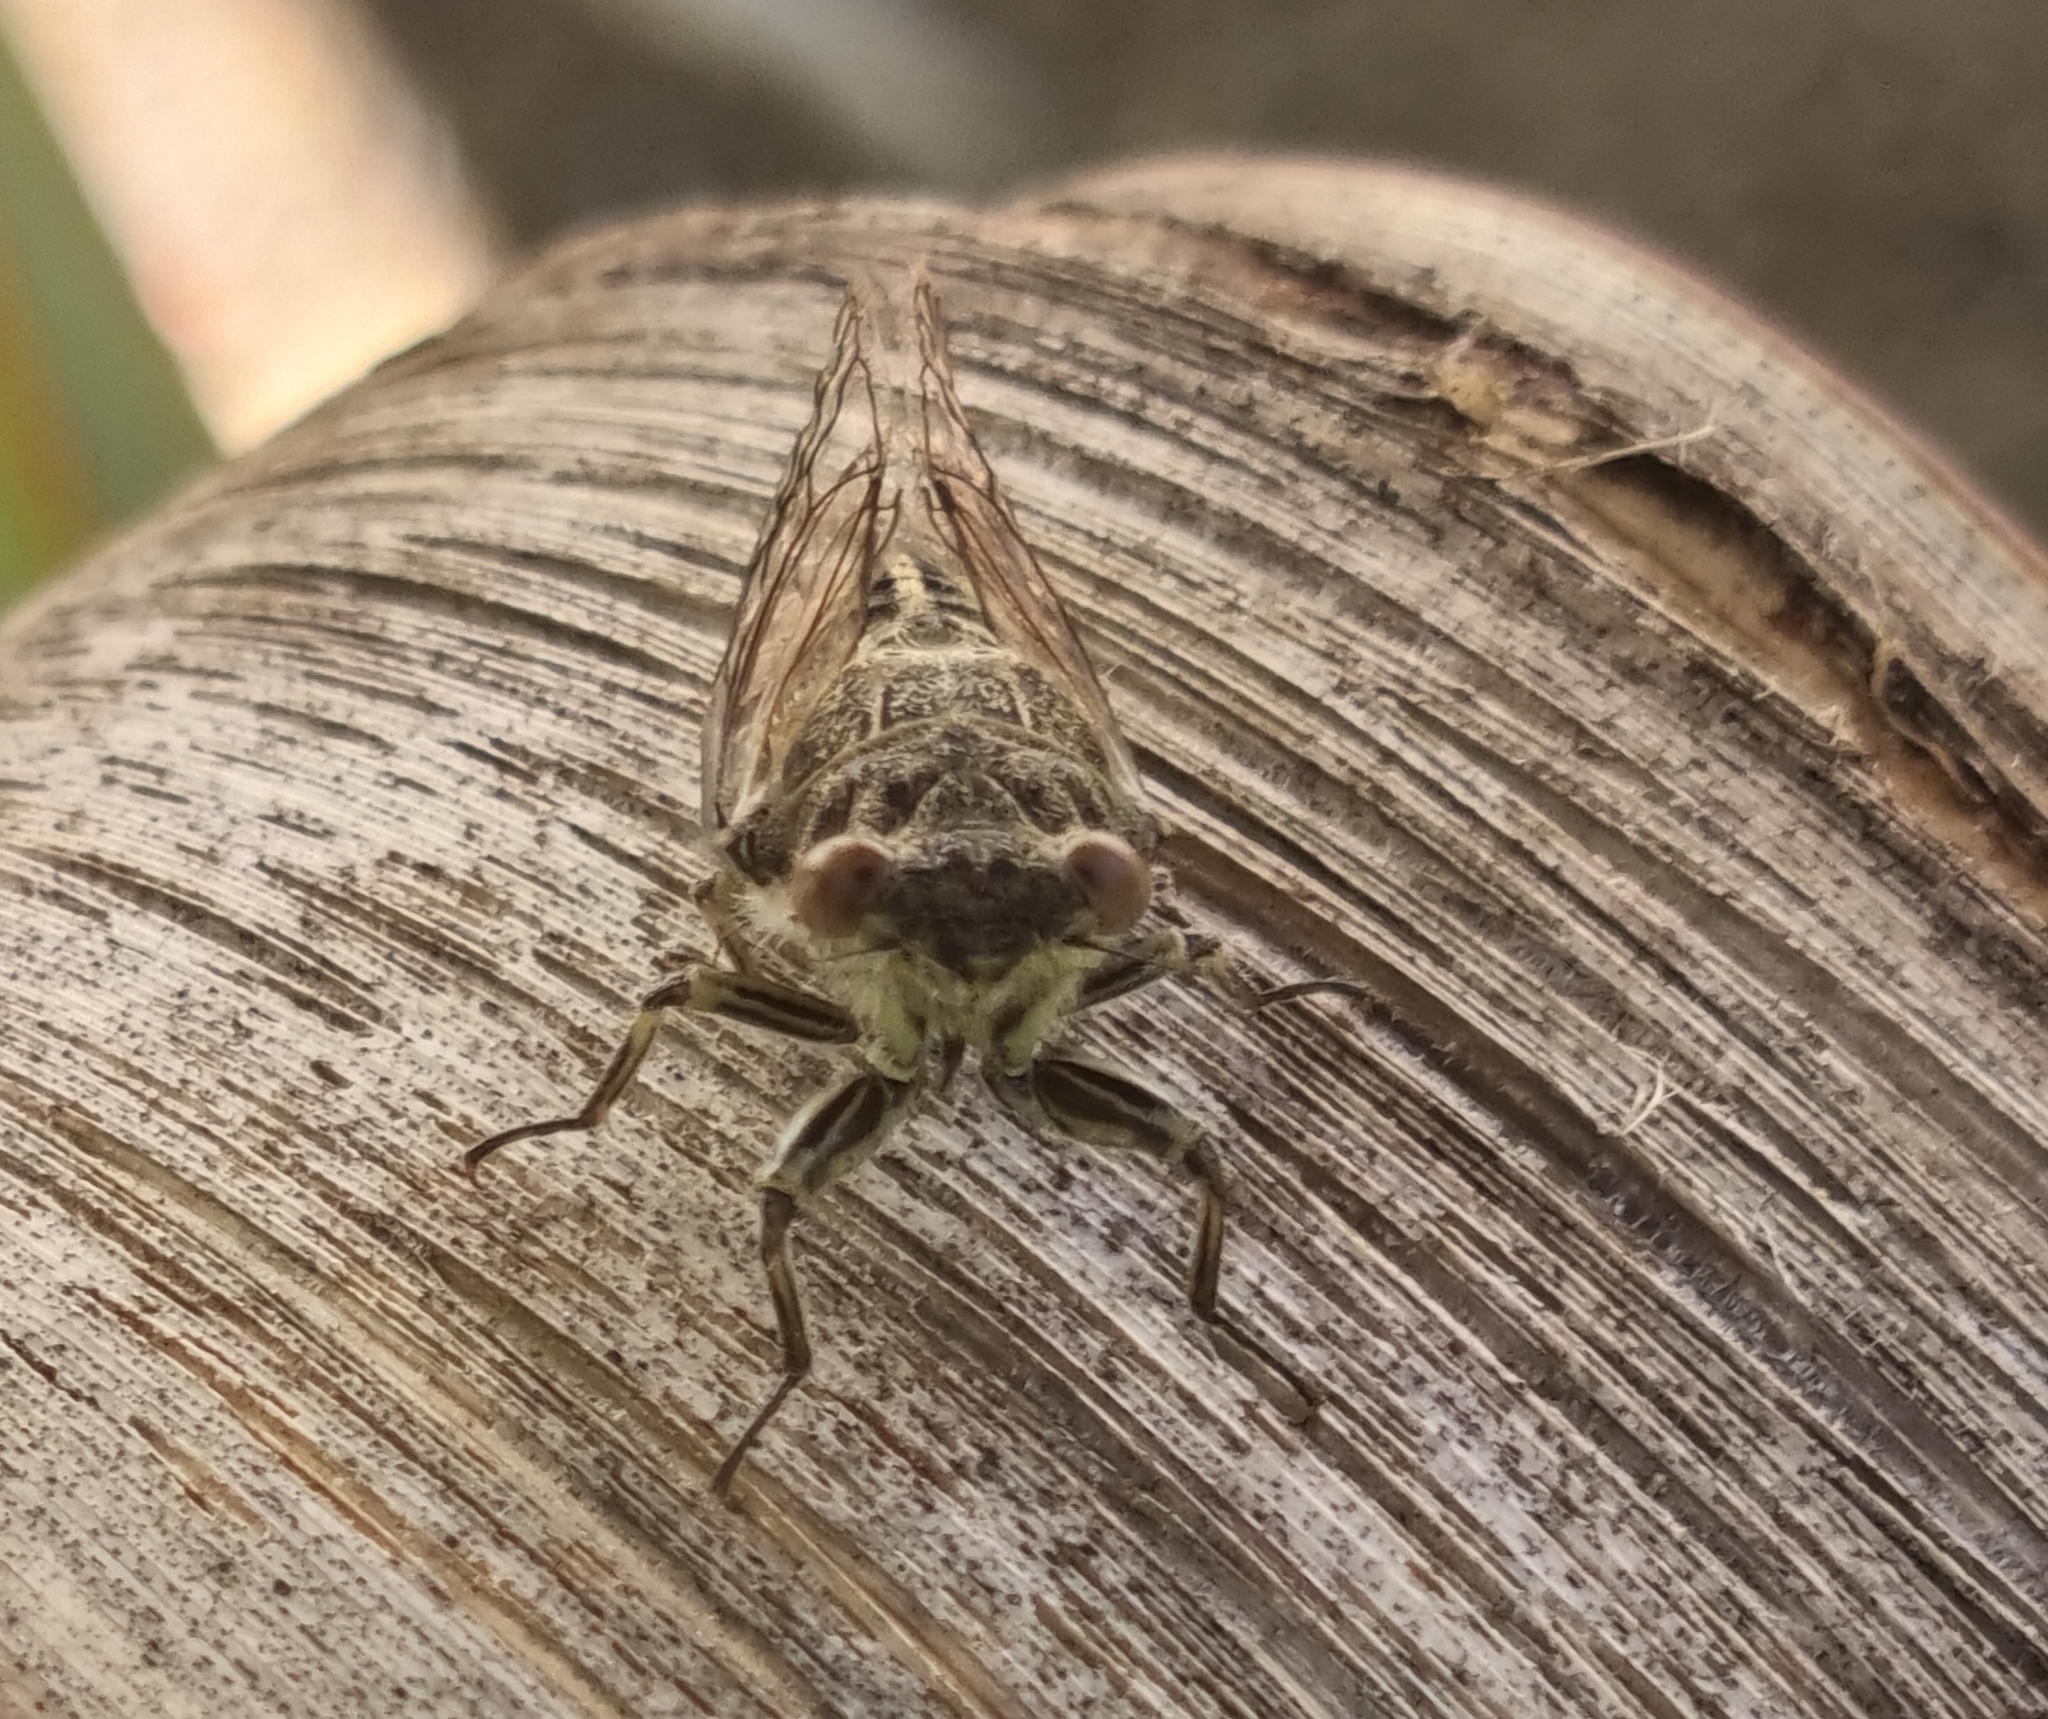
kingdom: Animalia
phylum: Arthropoda
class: Insecta
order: Hemiptera
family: Cicadidae
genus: Notopsalta
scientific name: Notopsalta sericea
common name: Clay bank cicada
